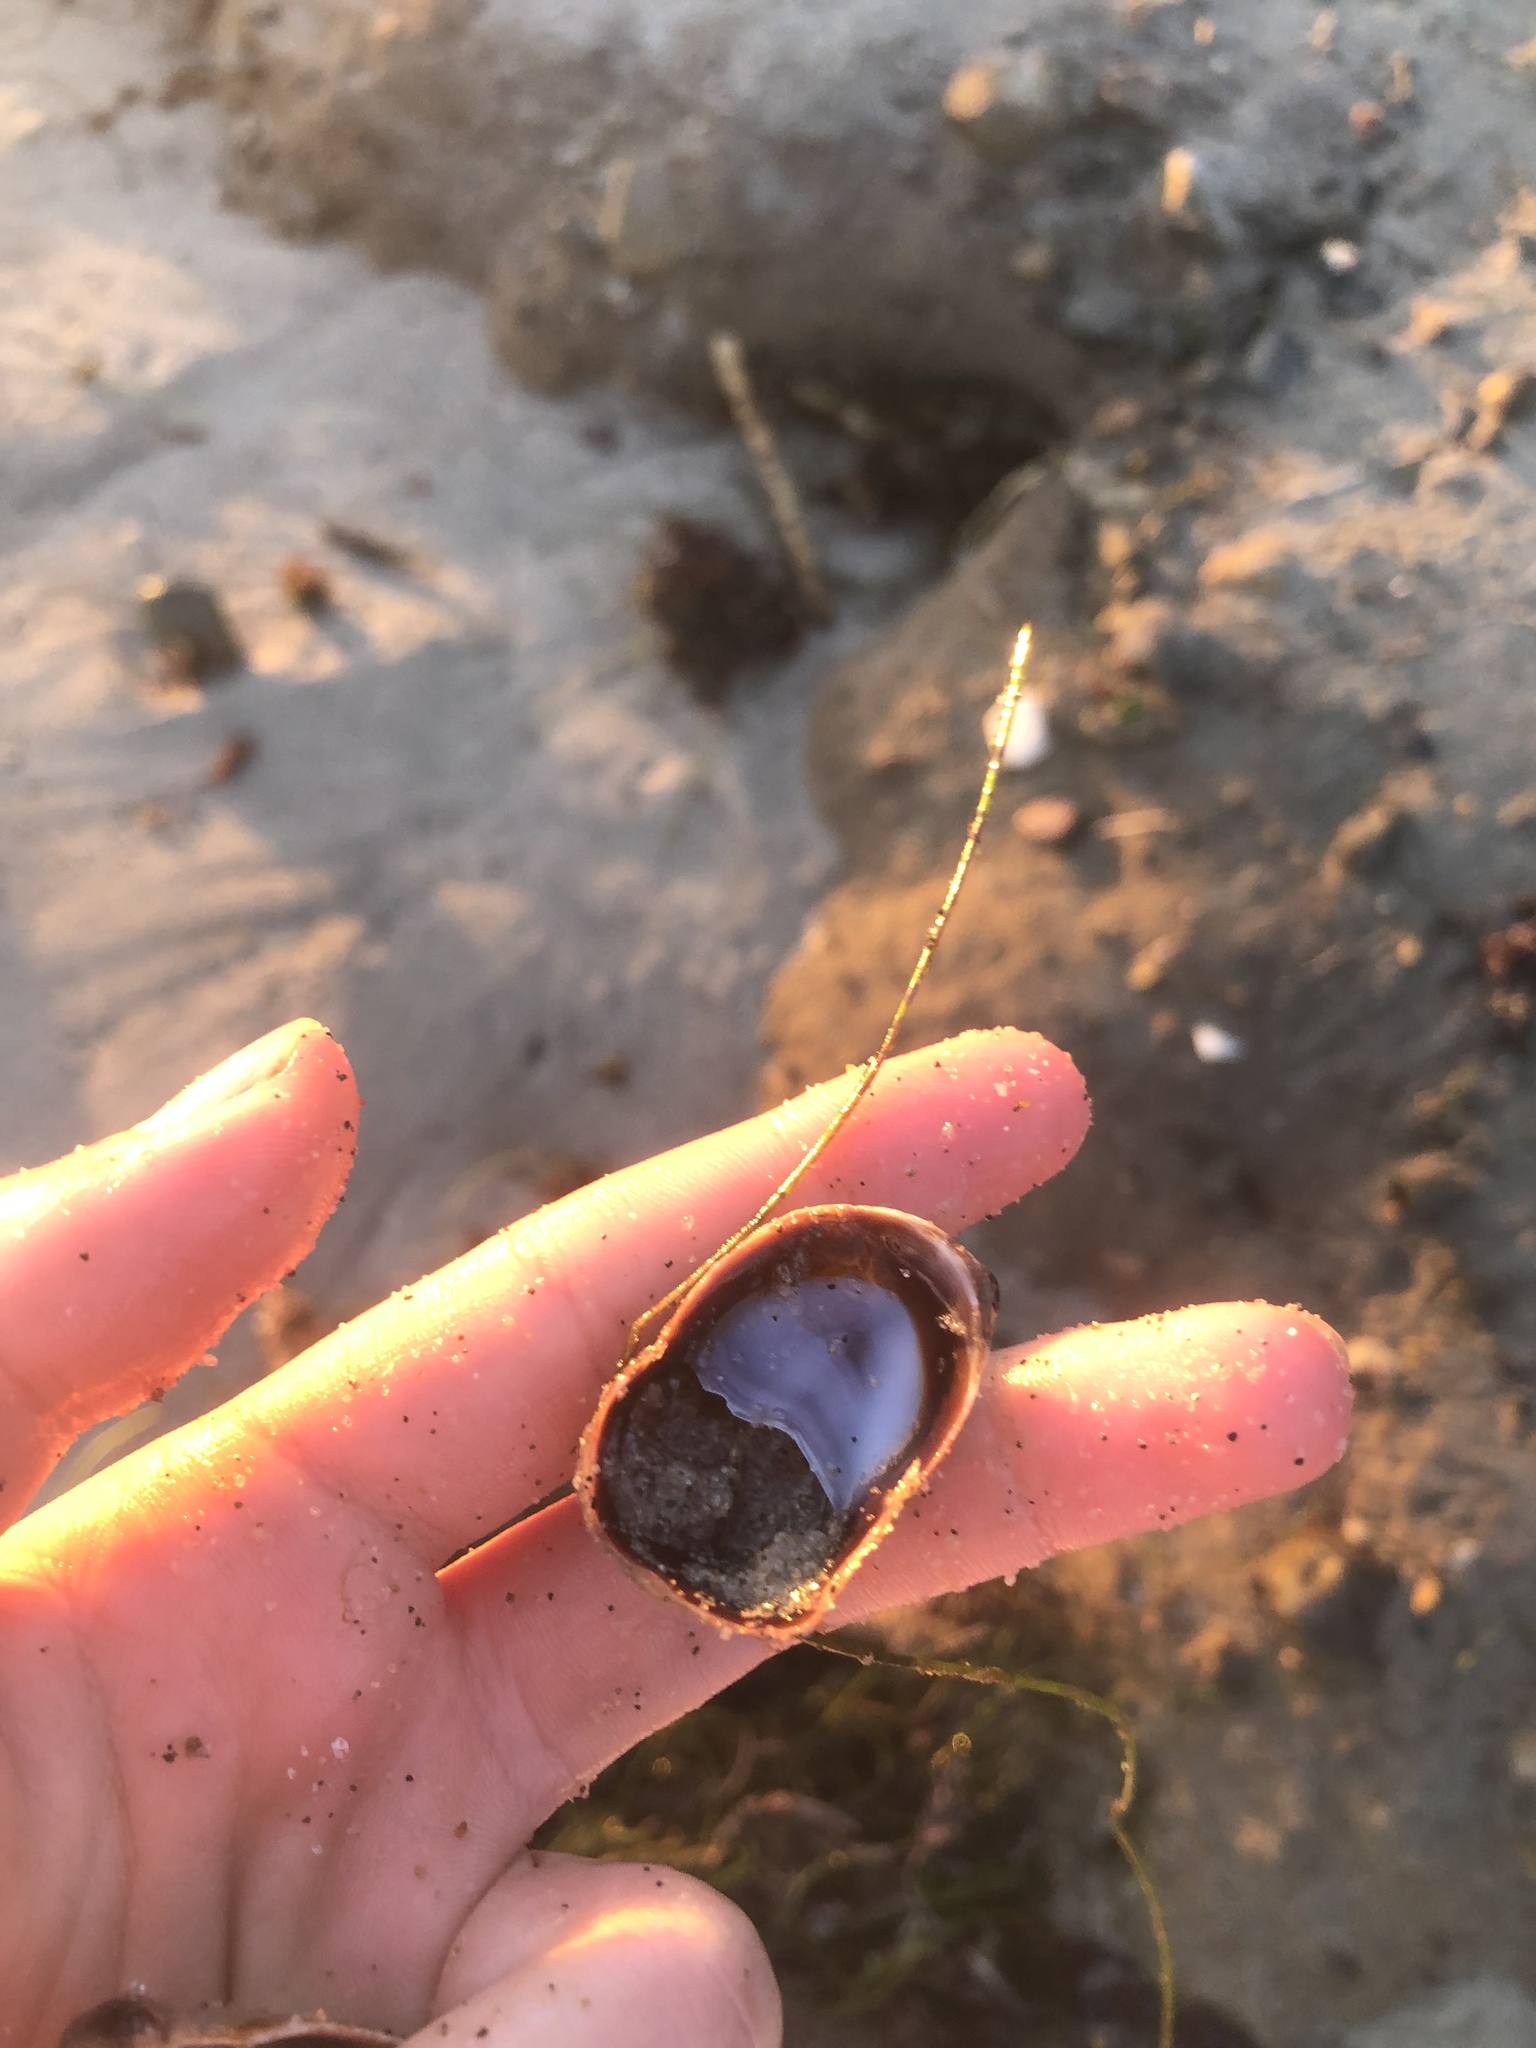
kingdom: Animalia
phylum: Mollusca
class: Gastropoda
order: Littorinimorpha
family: Calyptraeidae
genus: Crepidula
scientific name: Crepidula onyx
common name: Onyx slippersnail
